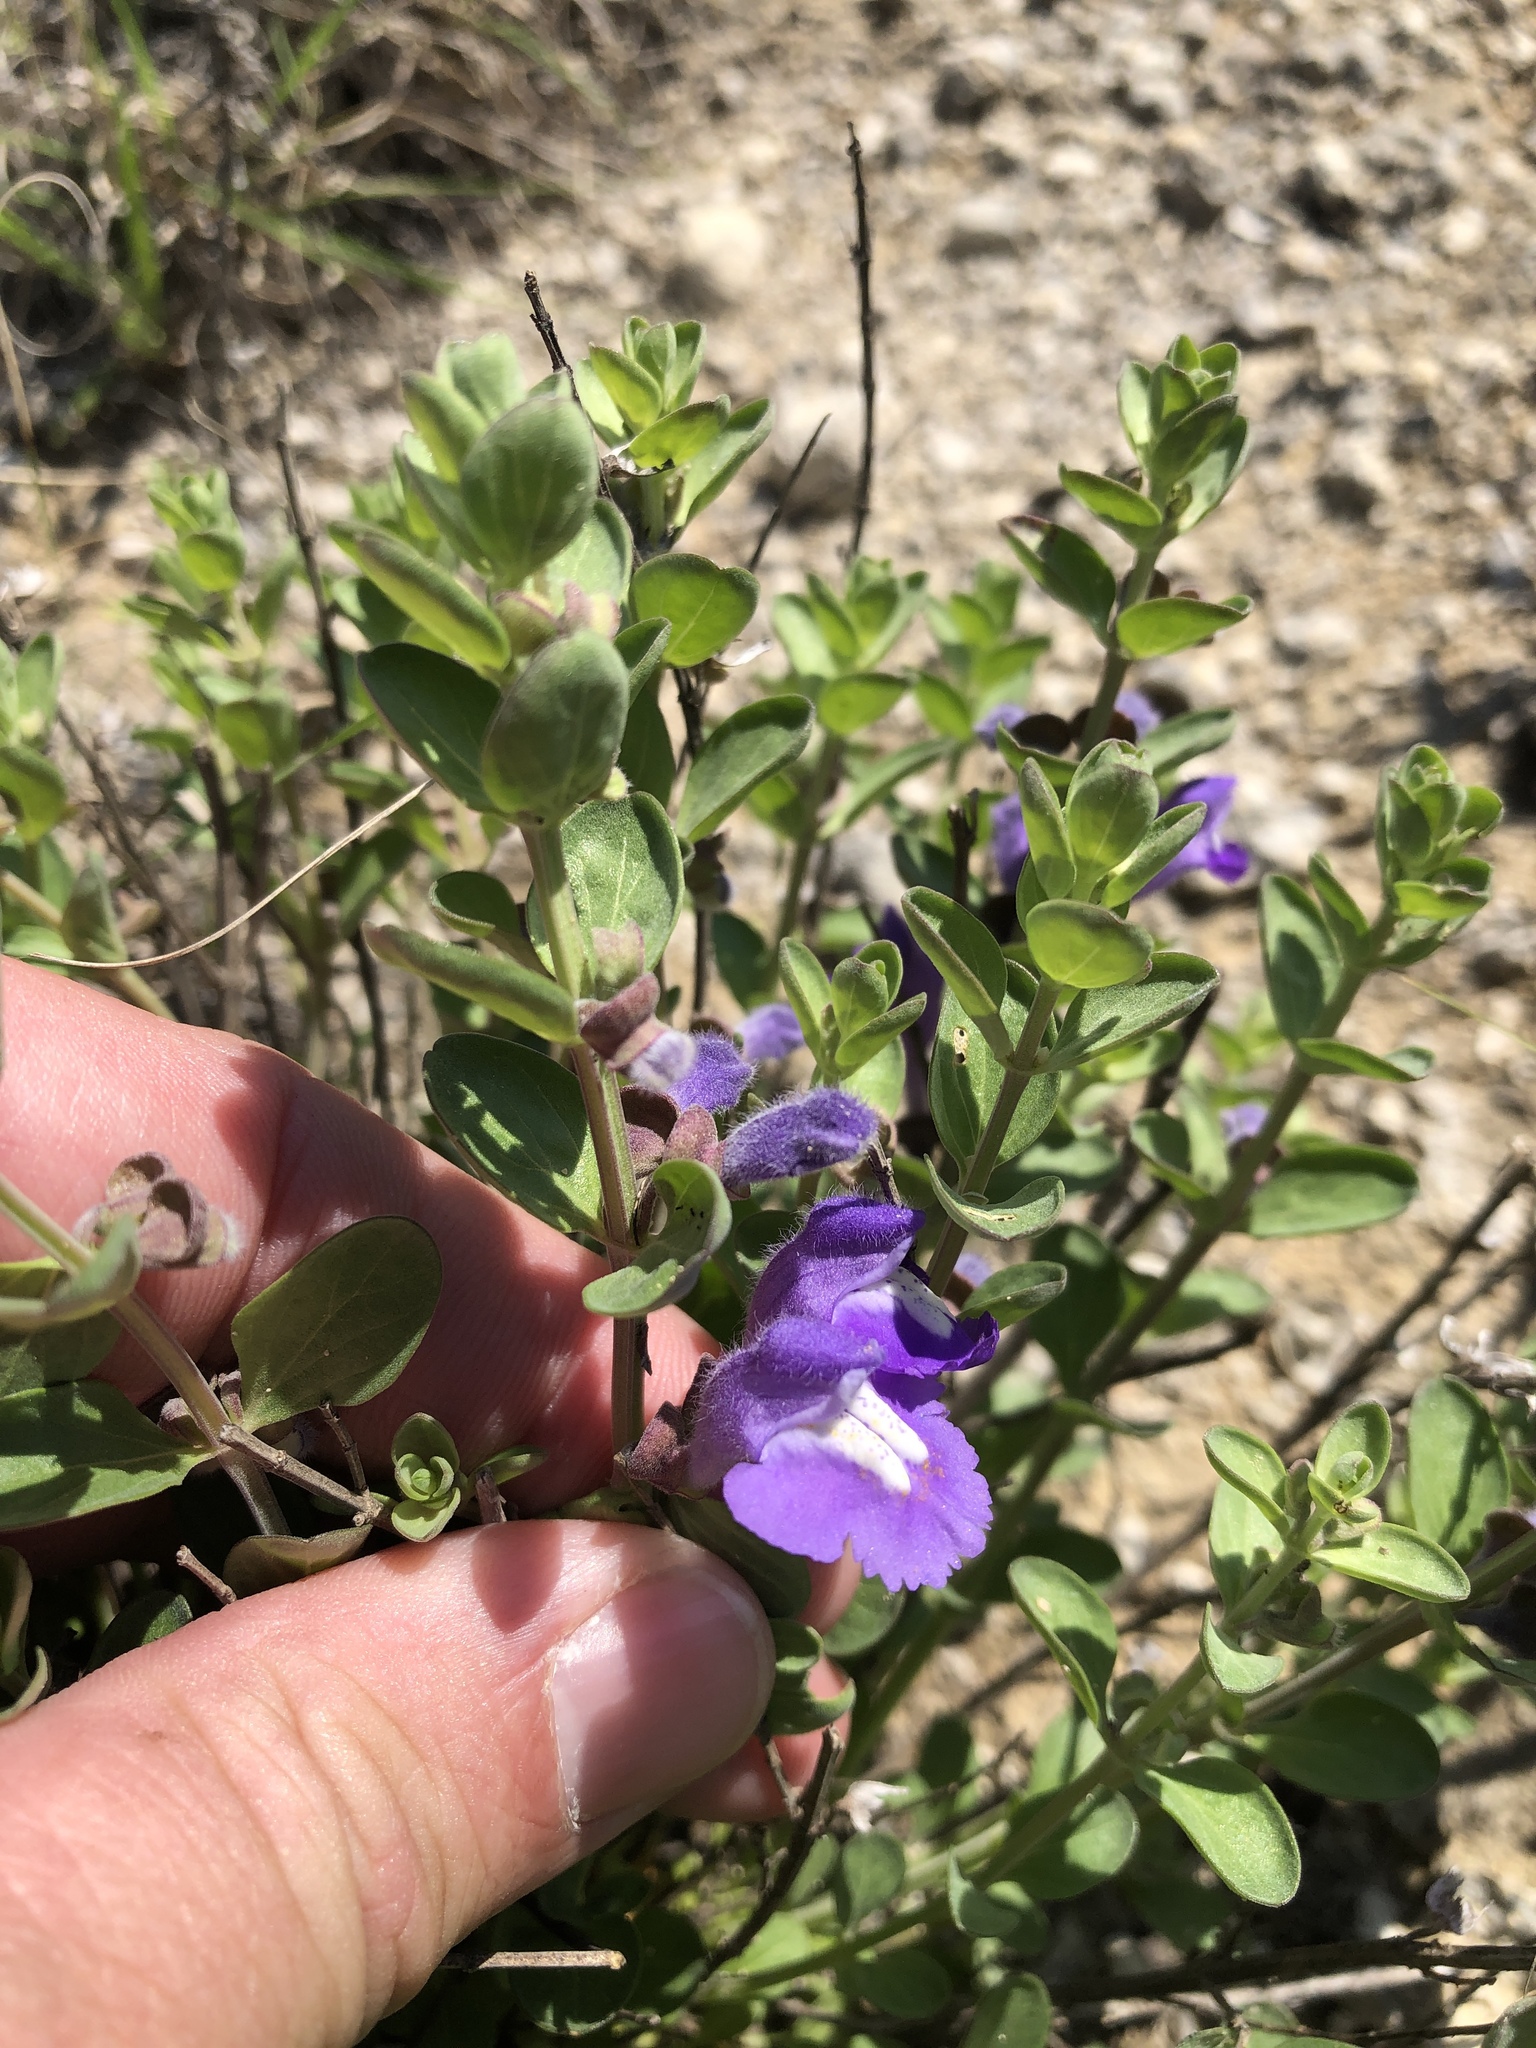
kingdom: Plantae
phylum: Tracheophyta
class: Magnoliopsida
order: Lamiales
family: Lamiaceae
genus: Scutellaria
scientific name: Scutellaria drummondii
